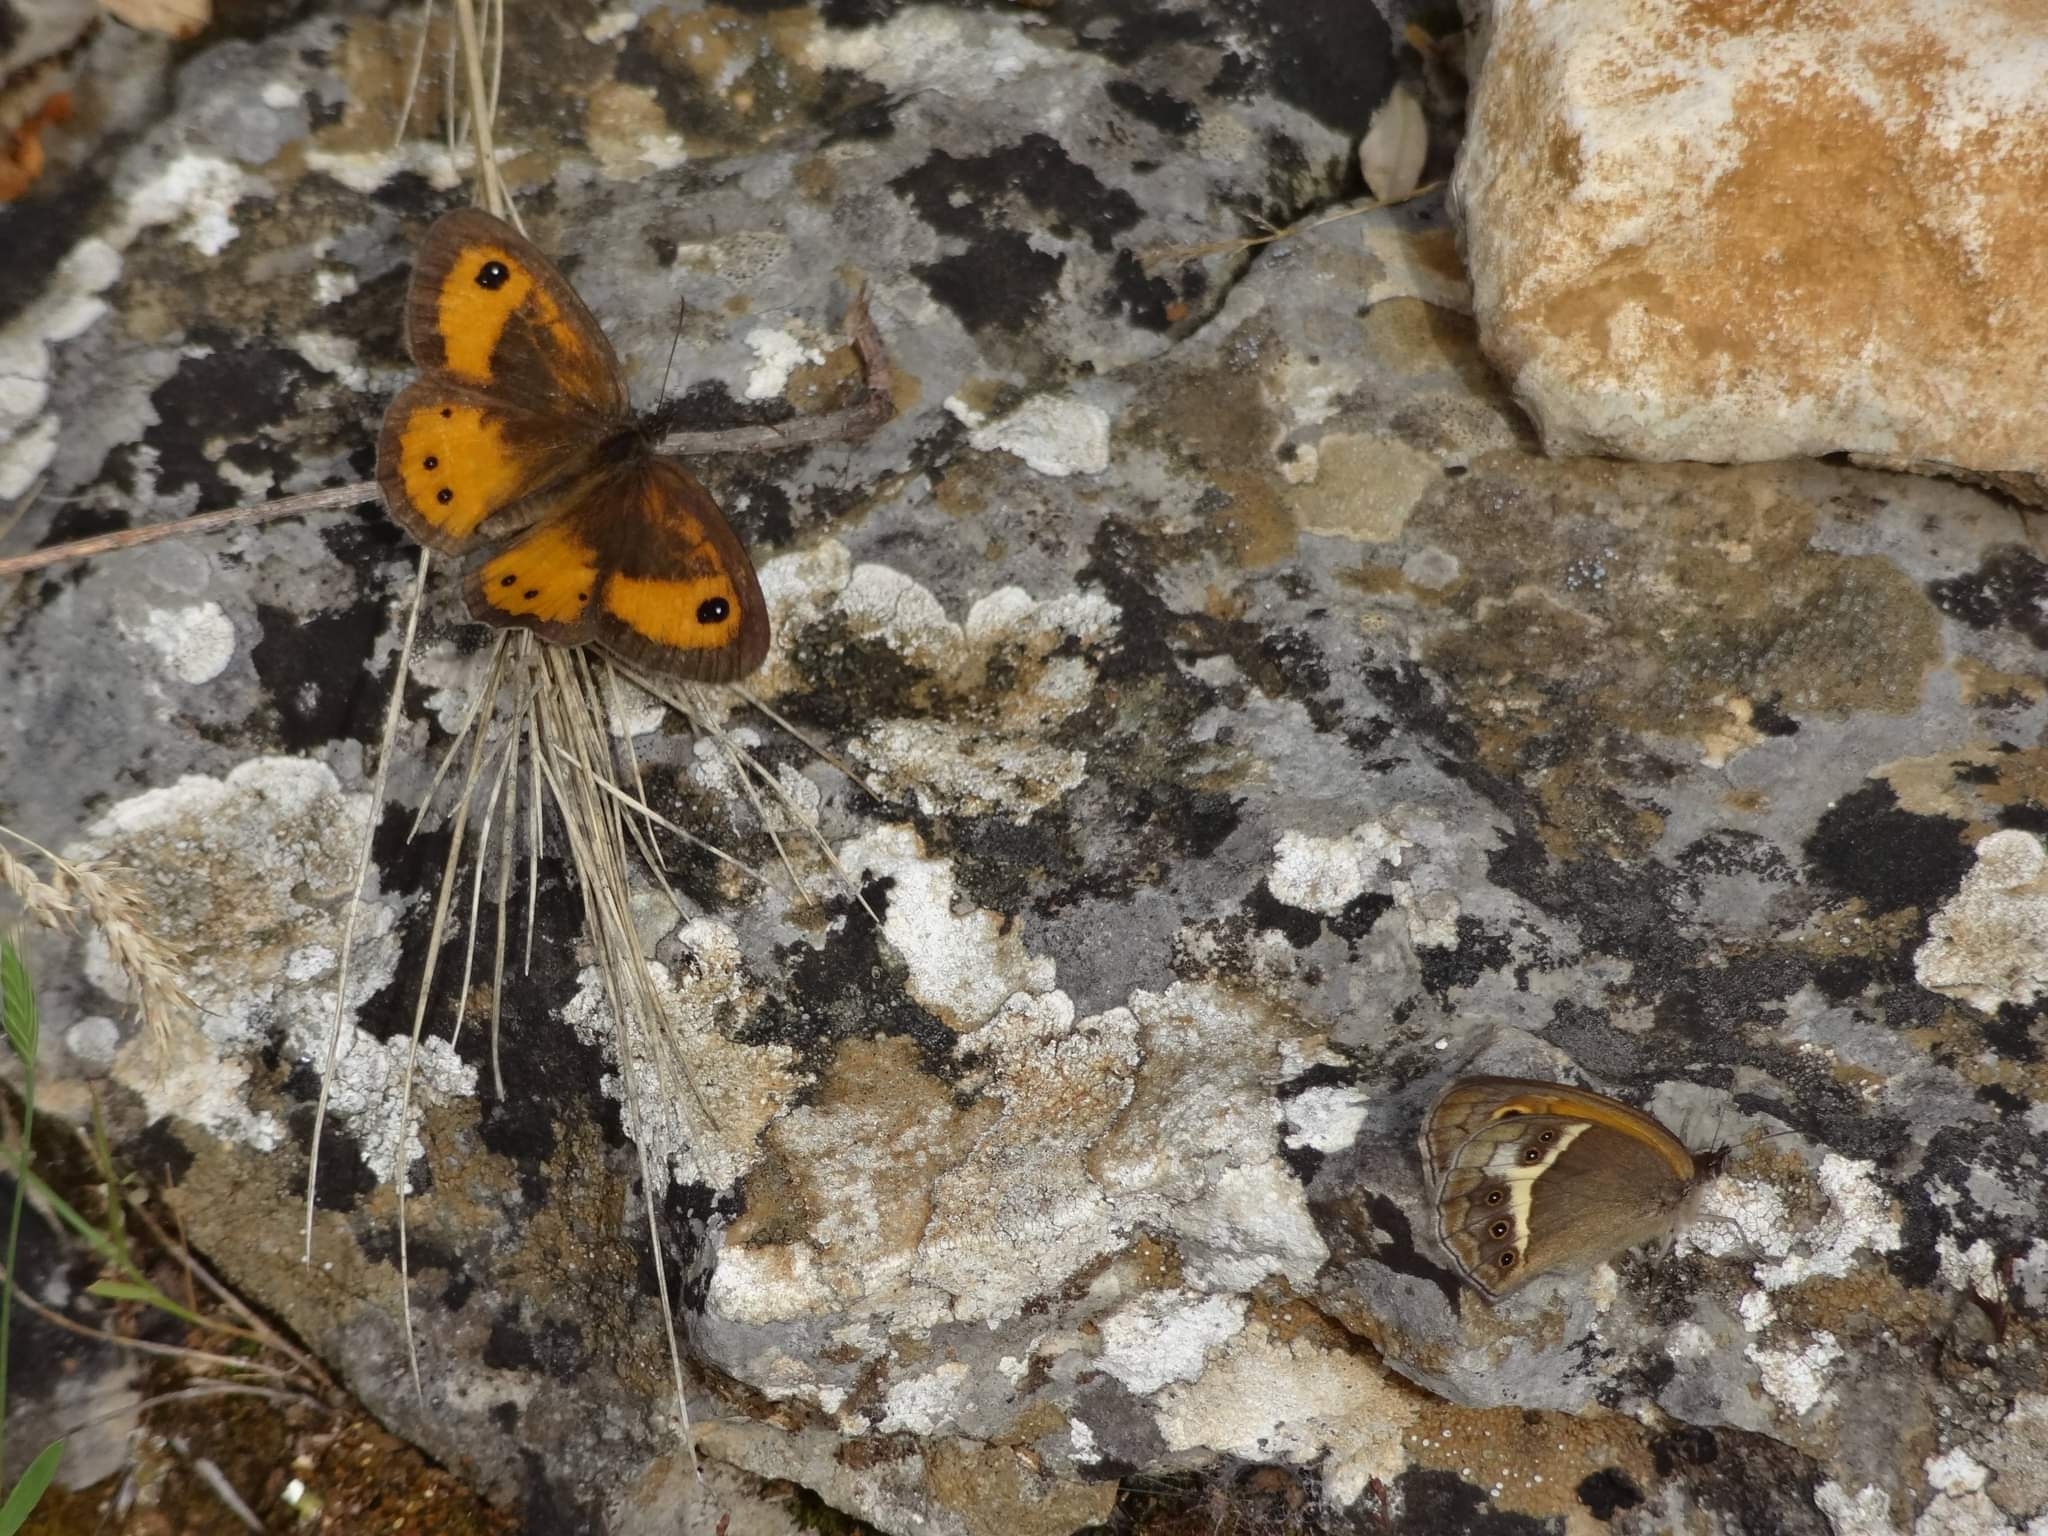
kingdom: Animalia
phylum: Arthropoda
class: Insecta
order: Lepidoptera
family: Nymphalidae
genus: Pyronia
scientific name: Pyronia bathseba
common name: Spanish gatekeeper
